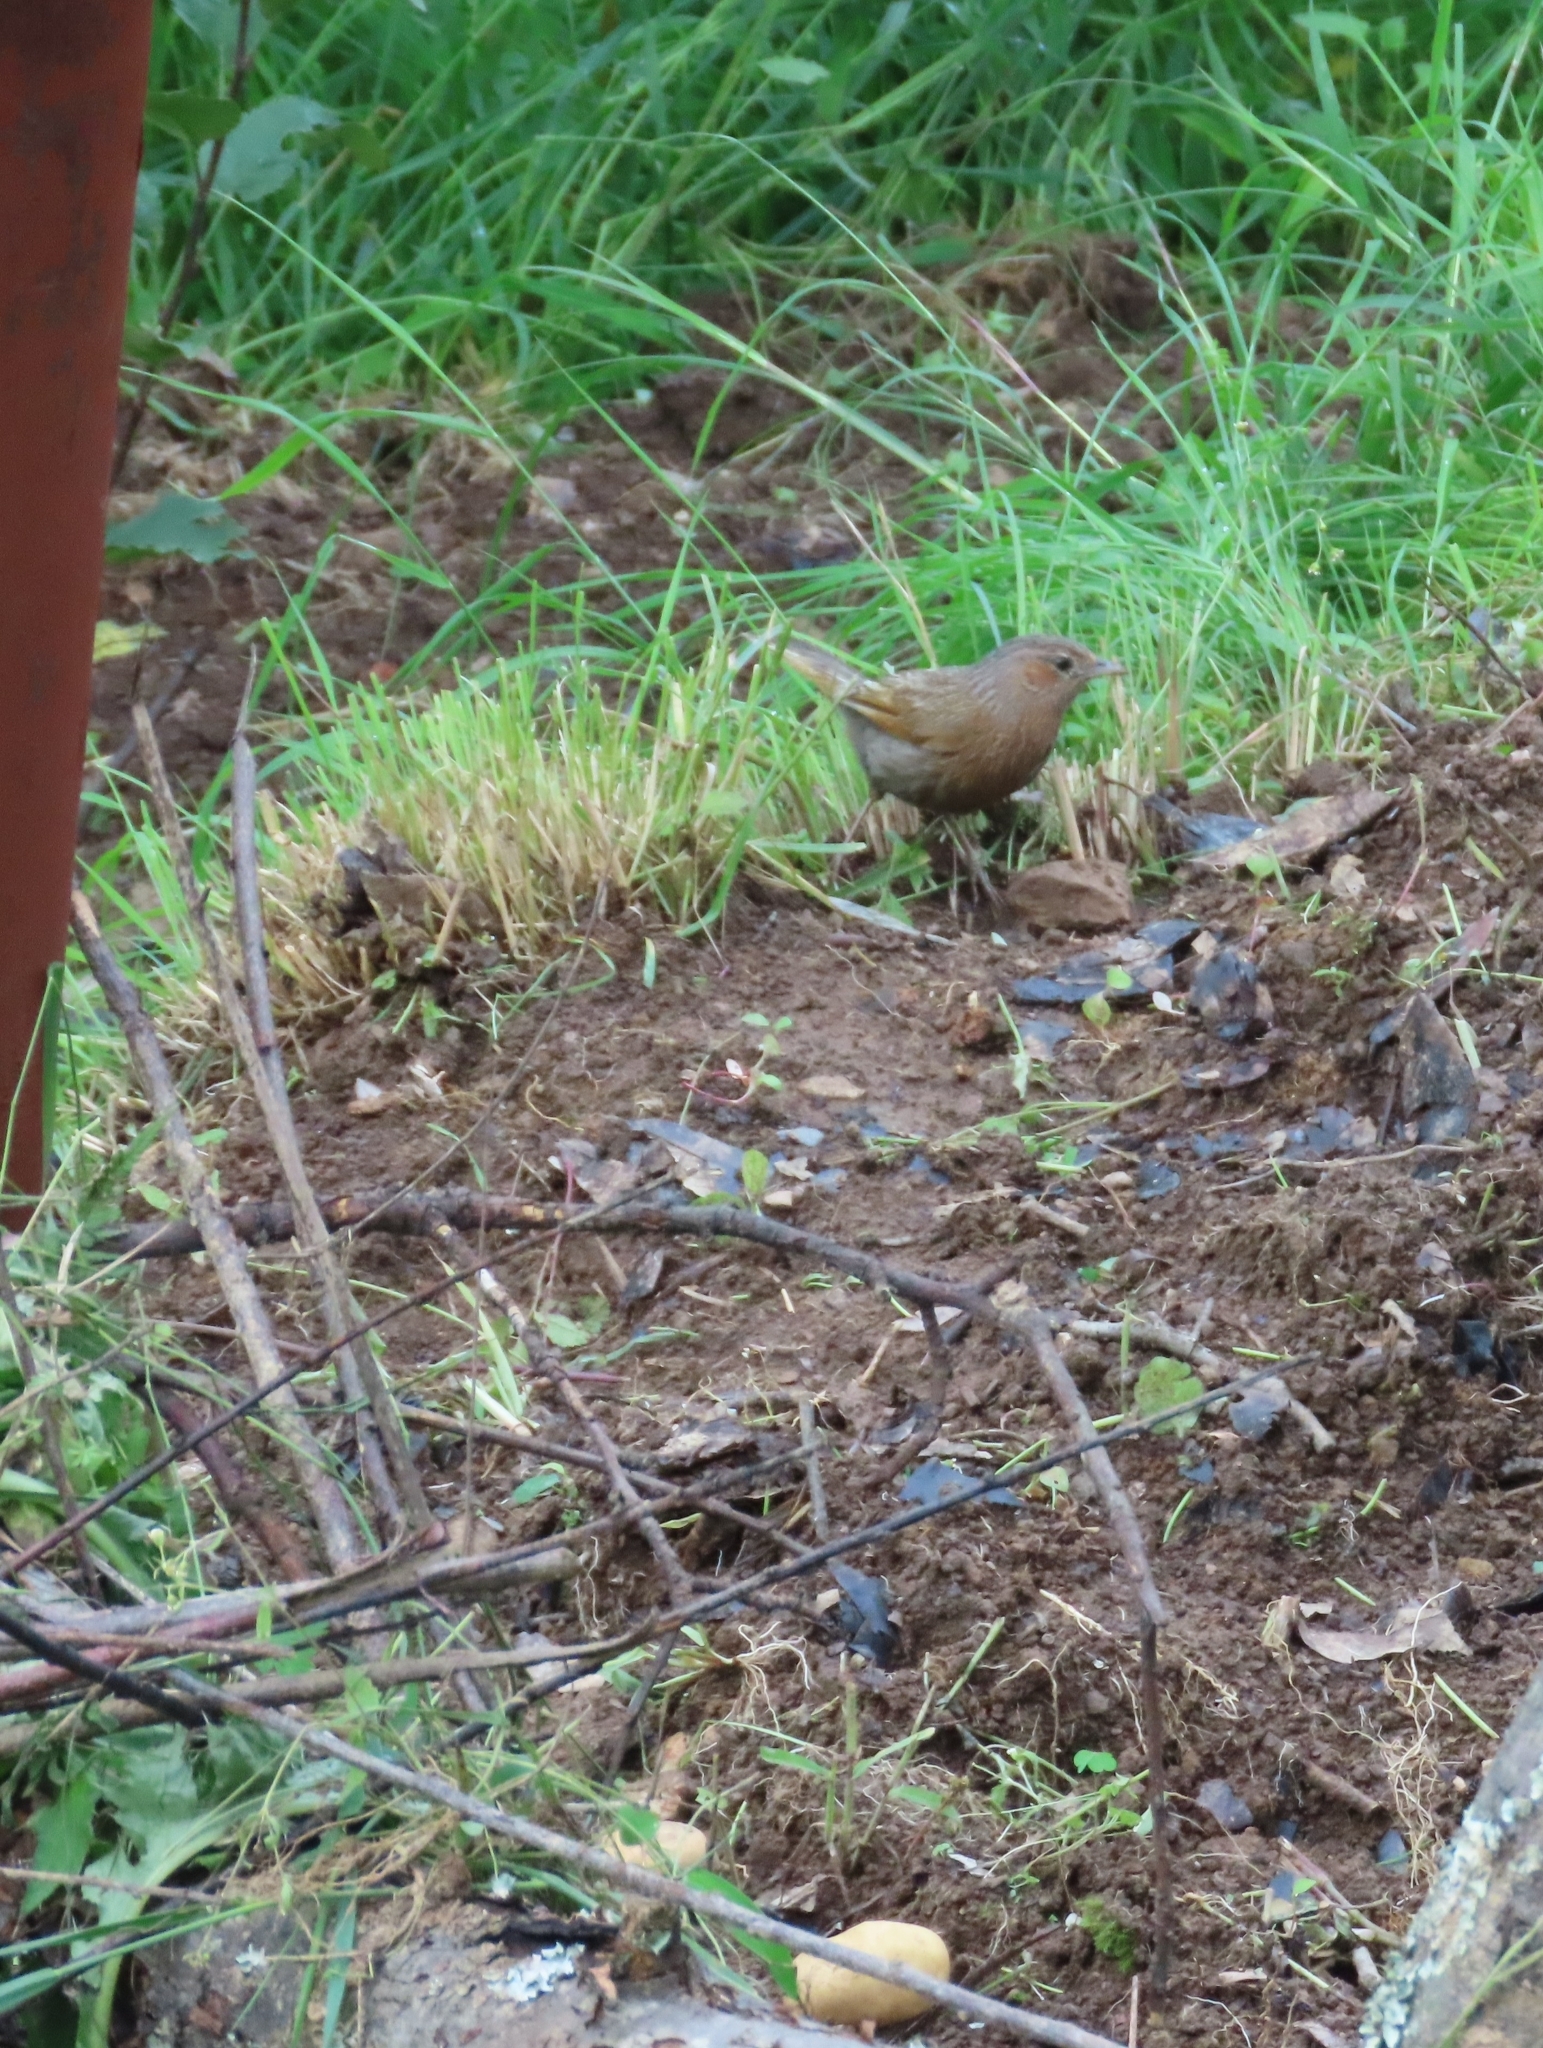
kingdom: Animalia
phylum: Chordata
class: Aves
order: Passeriformes
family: Leiothrichidae
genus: Trochalopteron
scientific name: Trochalopteron lineatum
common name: Streaked laughingthrush
